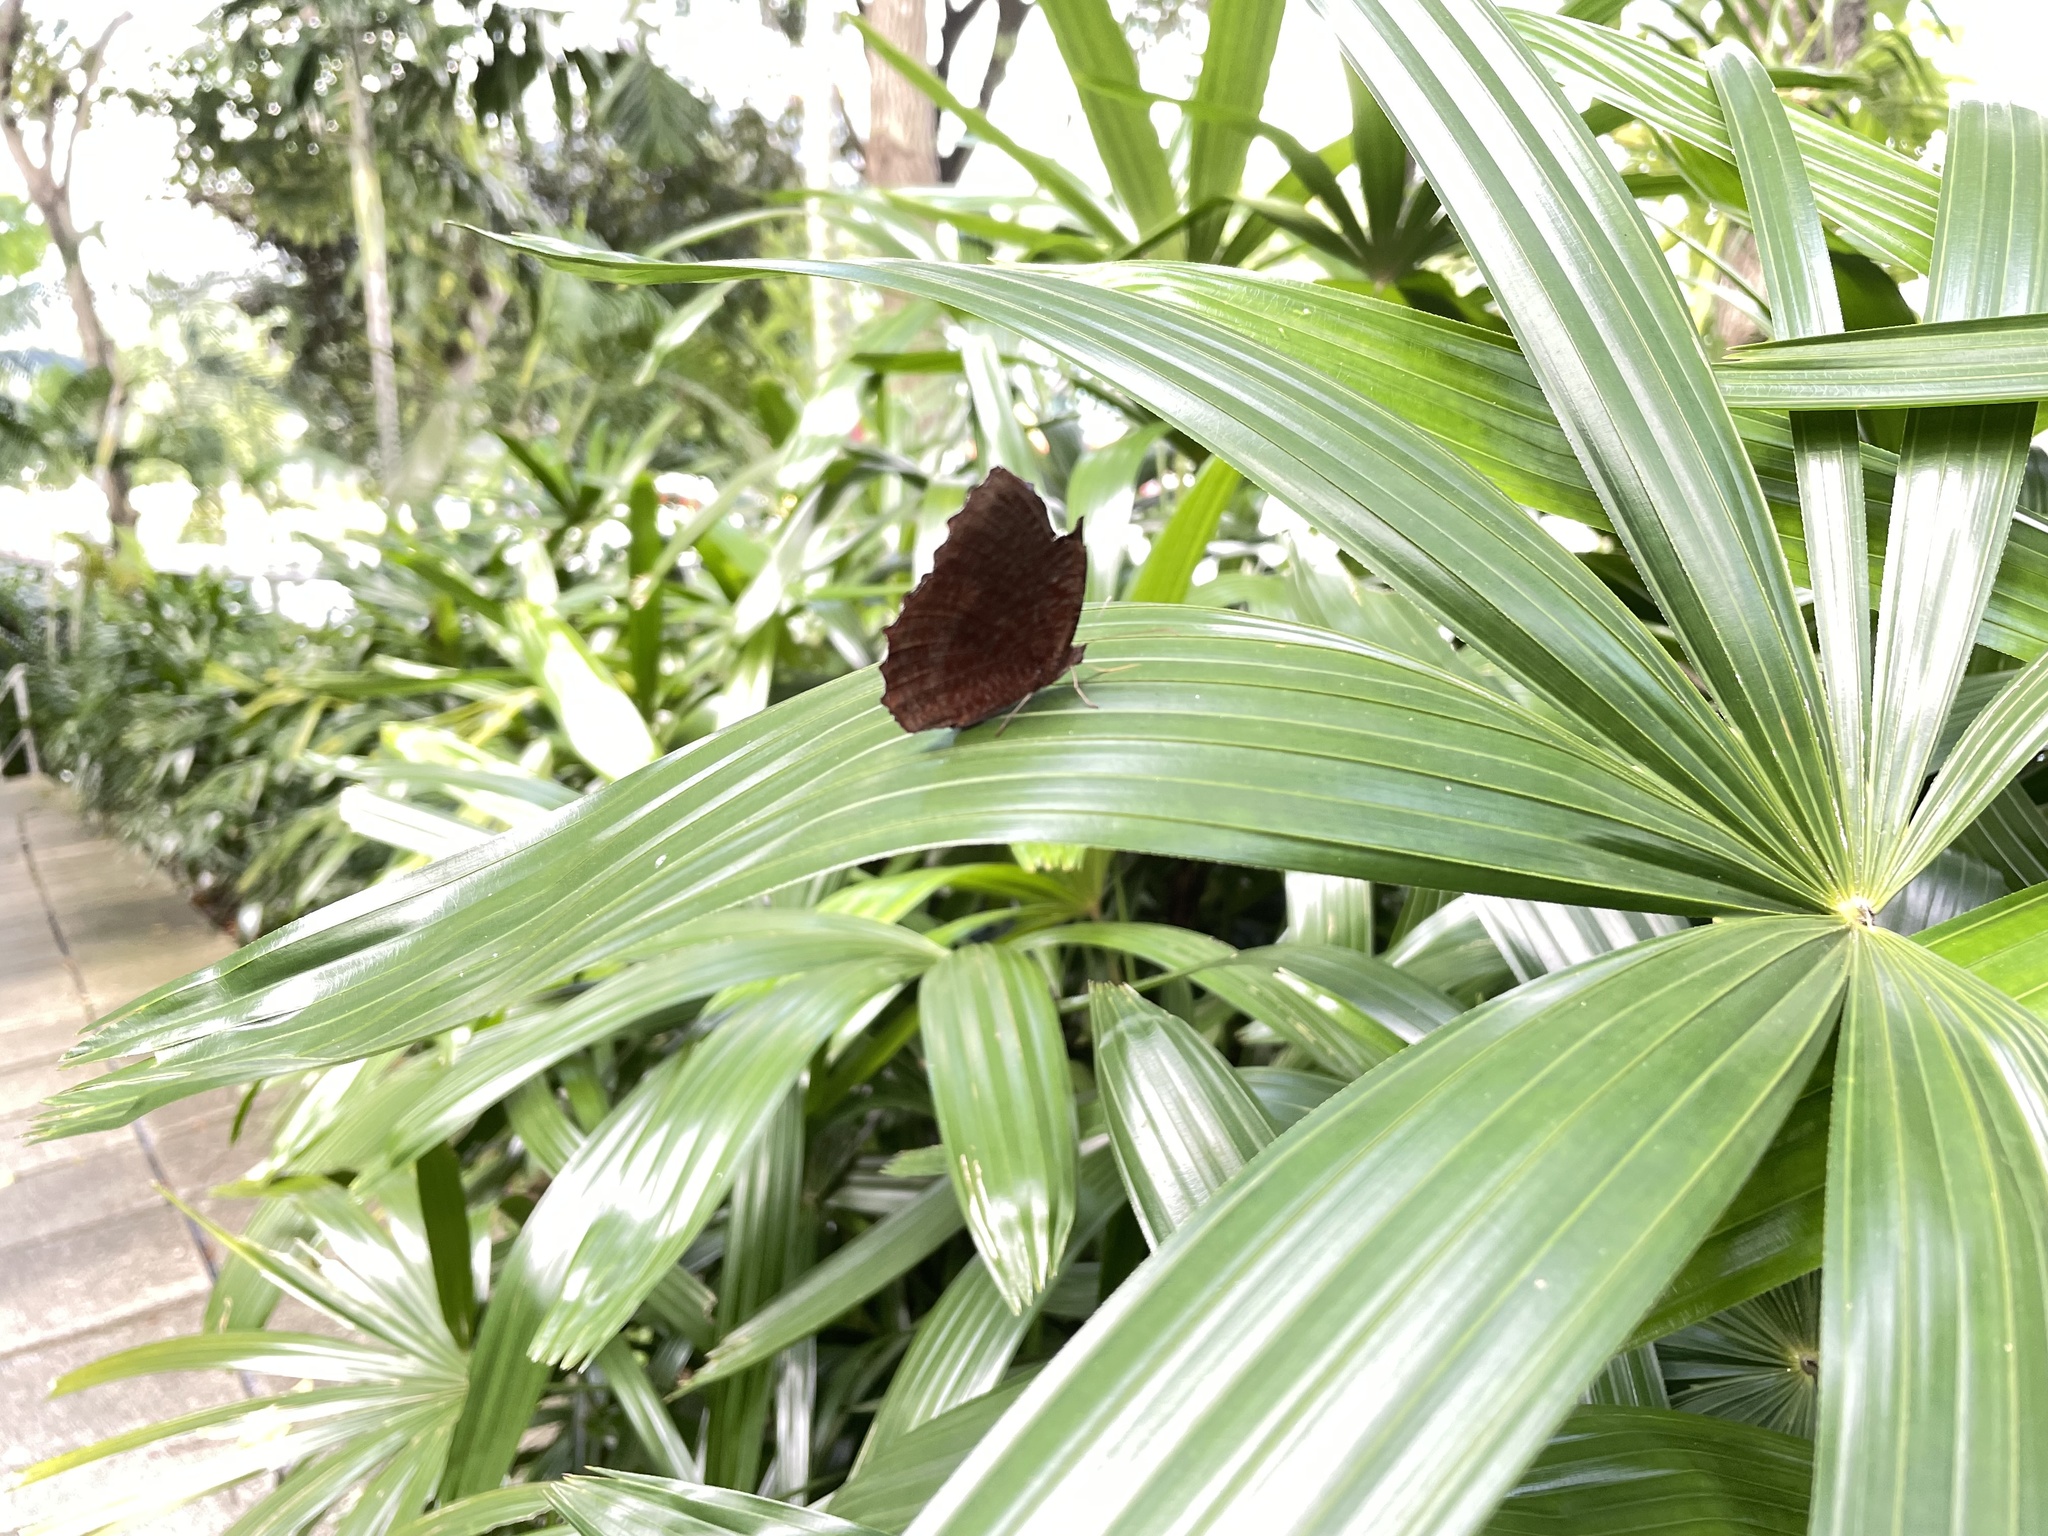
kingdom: Animalia
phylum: Arthropoda
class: Insecta
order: Lepidoptera
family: Nymphalidae
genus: Elymnias
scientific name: Elymnias hypermnestra
